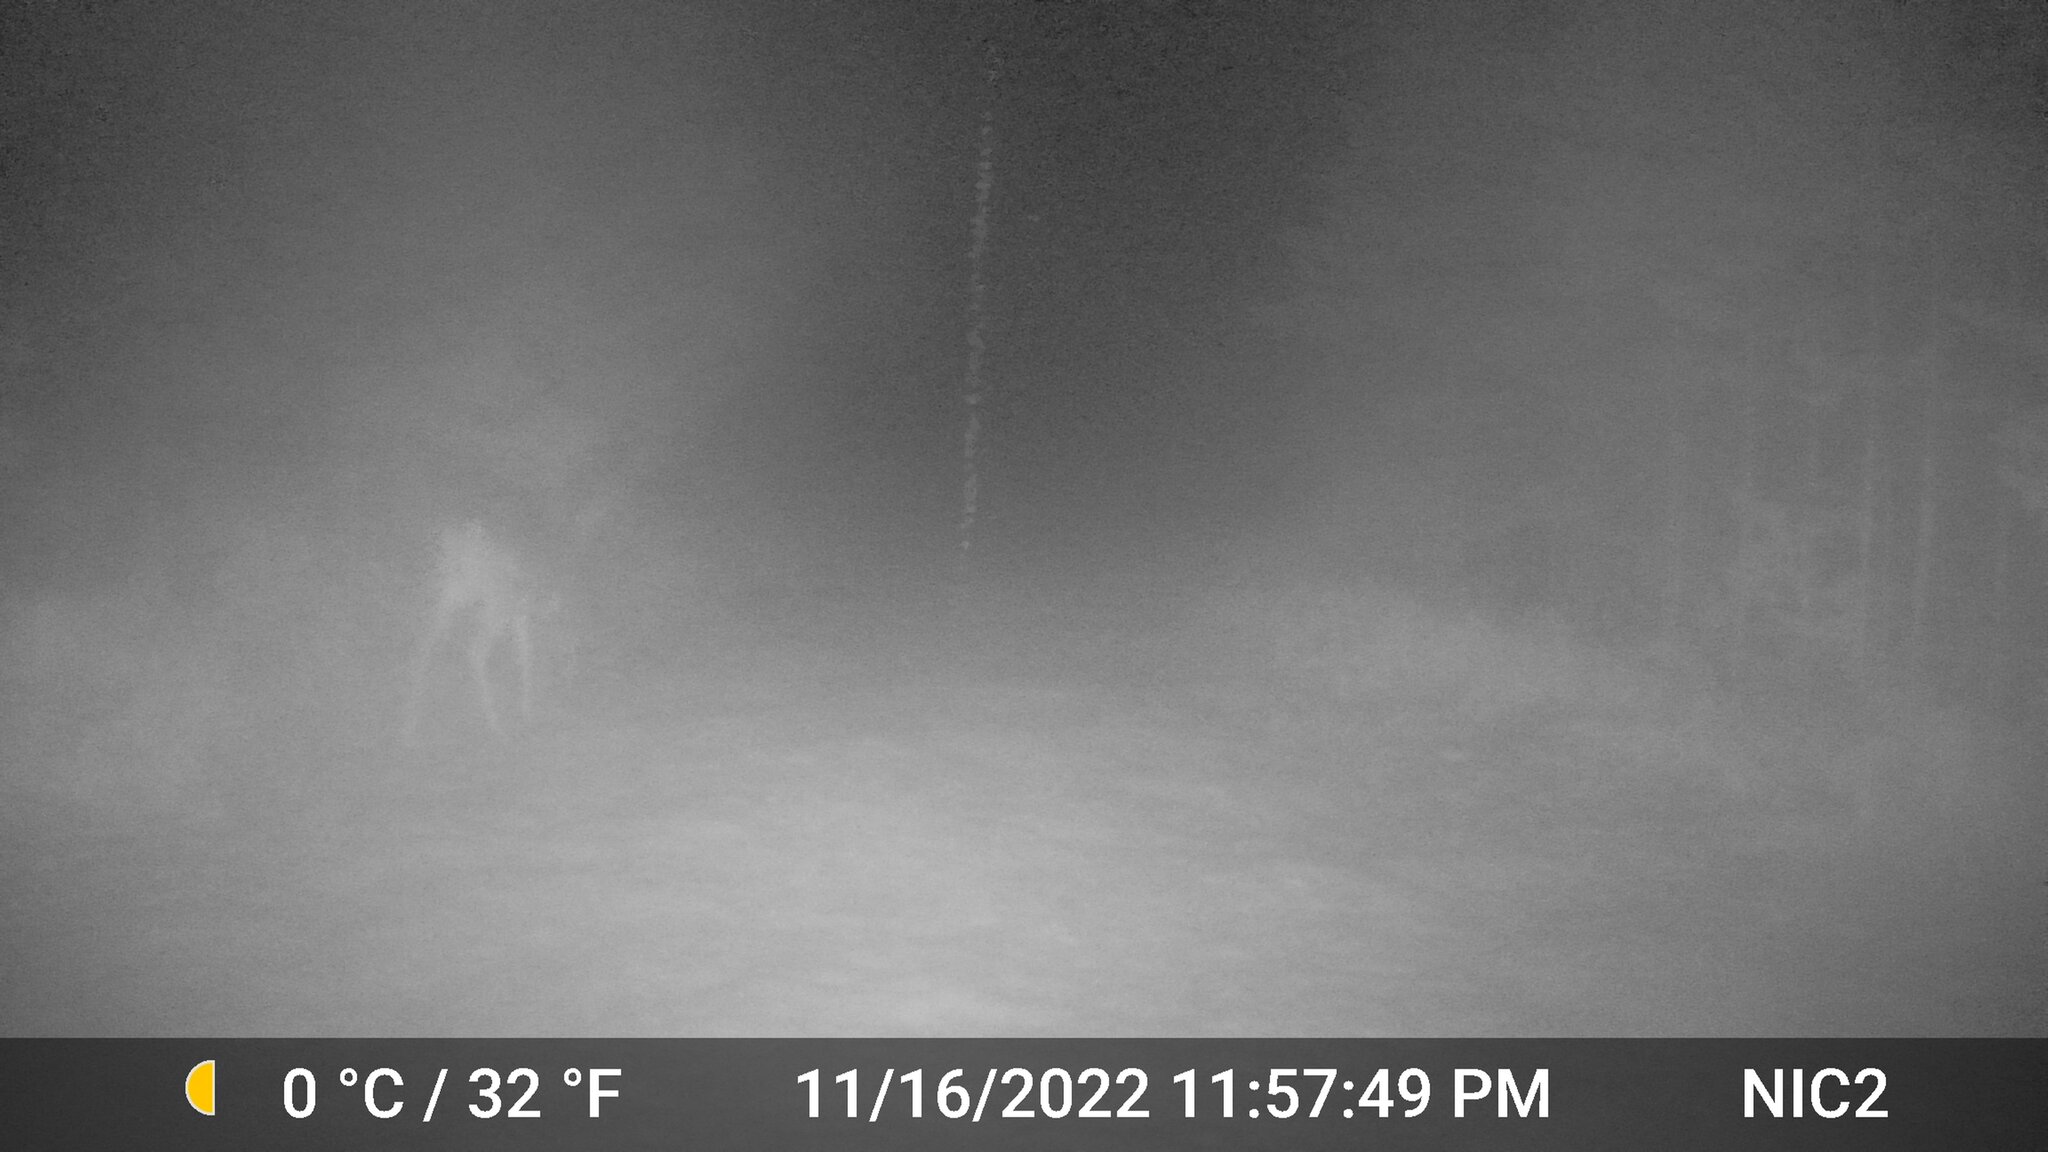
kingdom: Animalia
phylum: Chordata
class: Mammalia
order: Artiodactyla
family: Cervidae
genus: Odocoileus
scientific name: Odocoileus virginianus
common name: White-tailed deer
